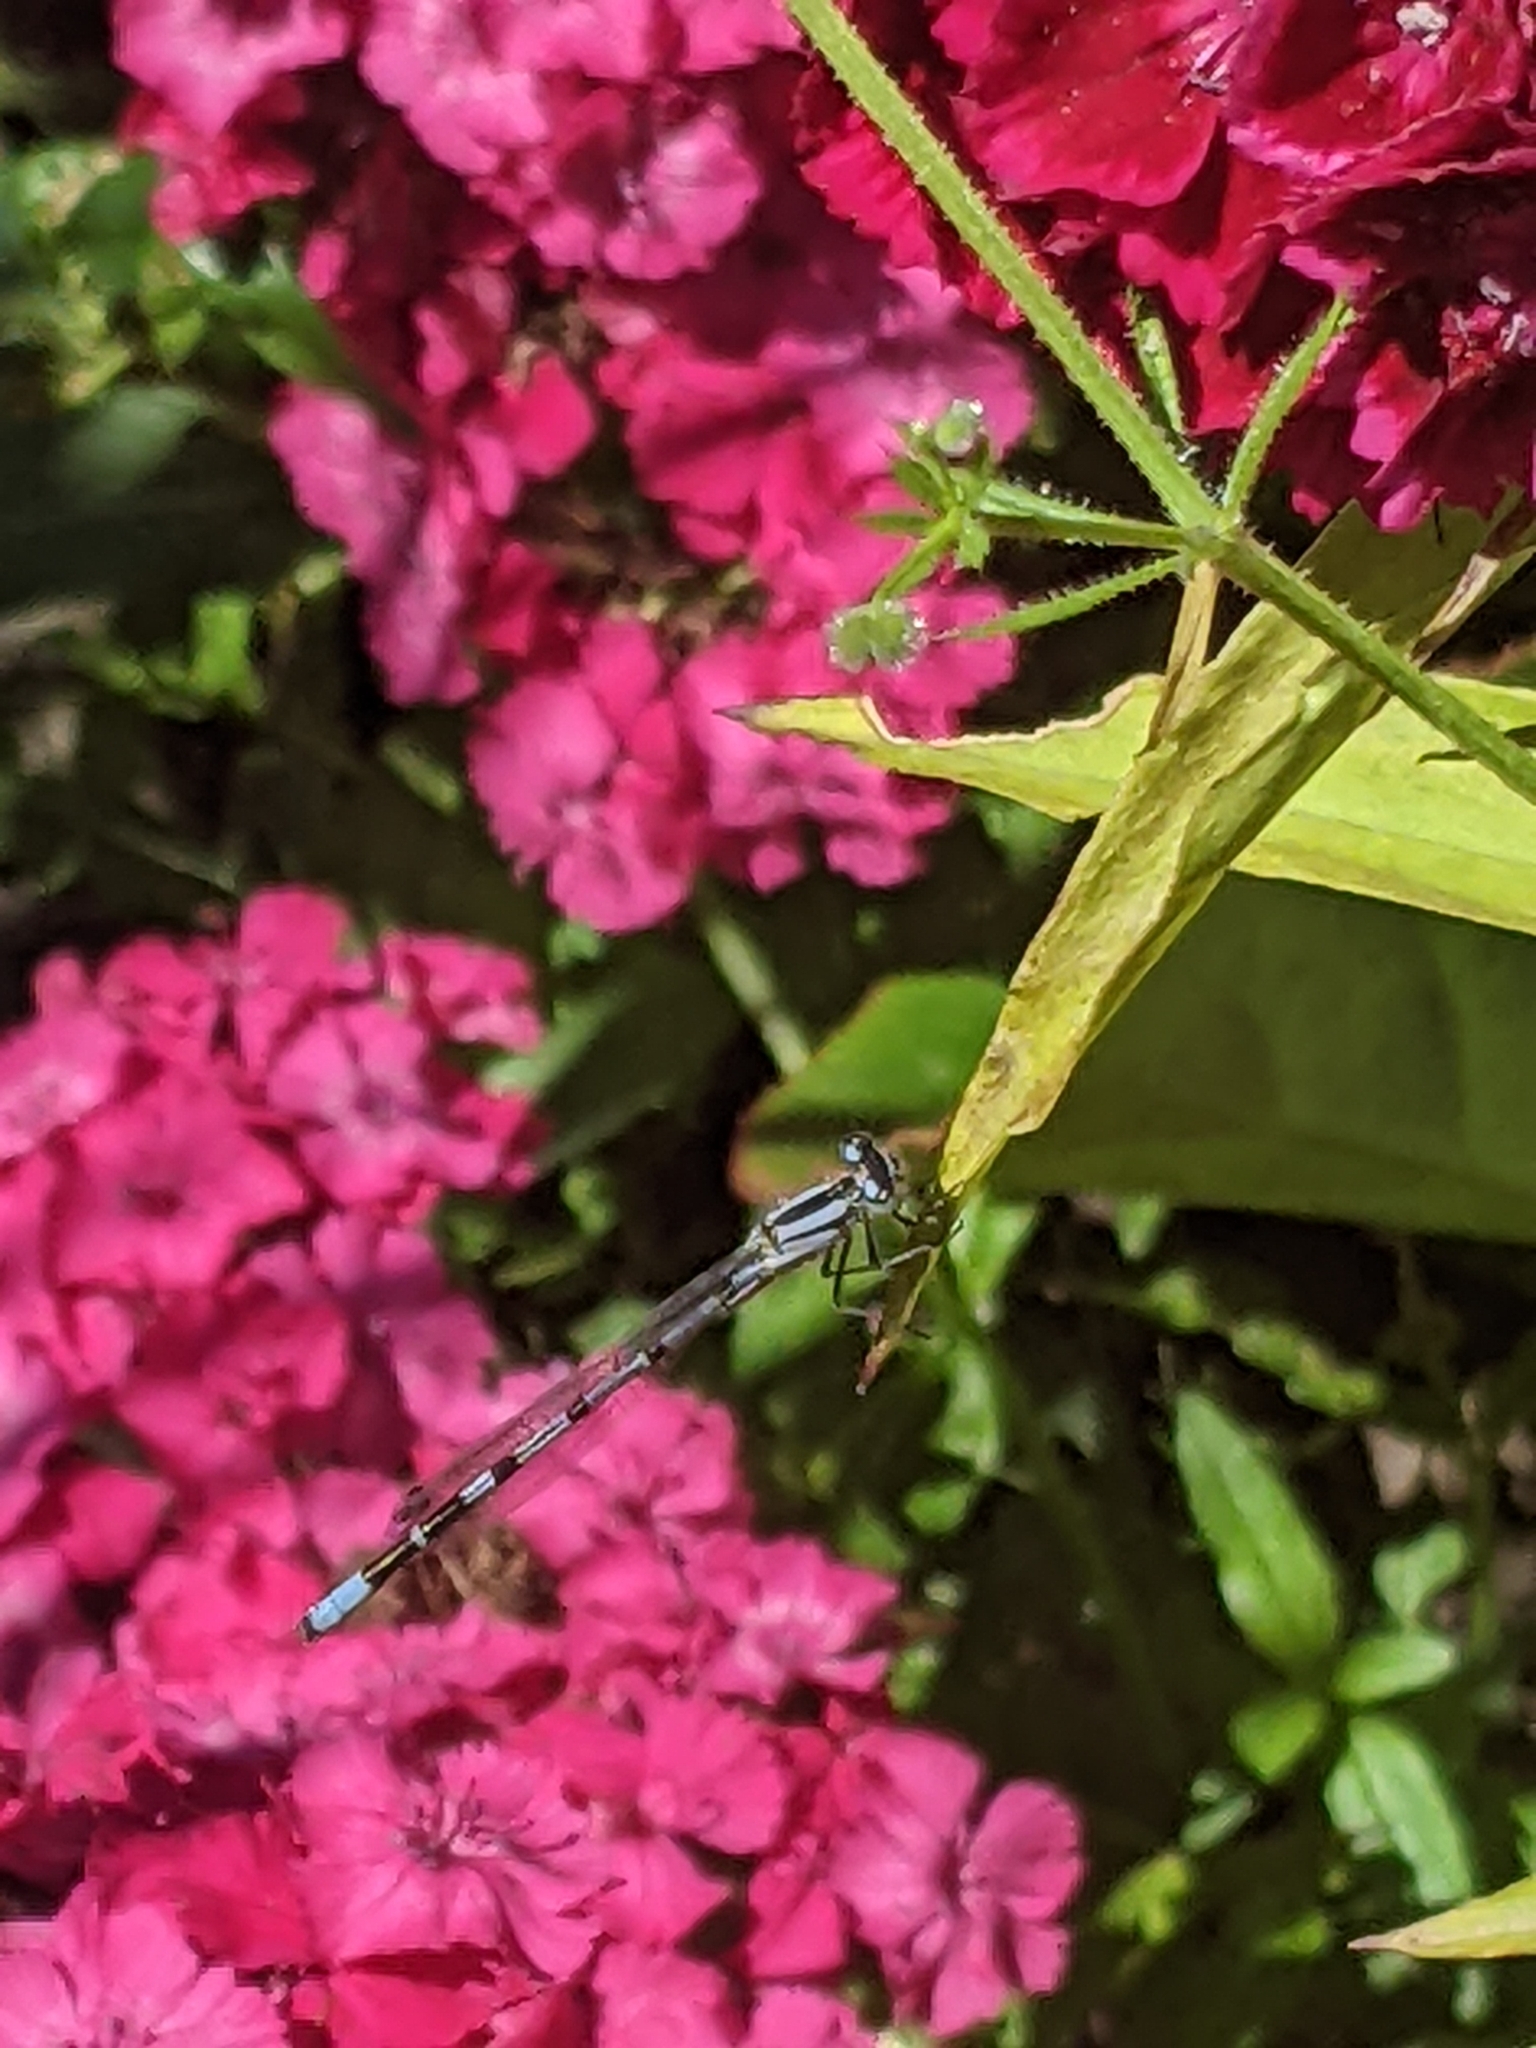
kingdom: Animalia
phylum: Arthropoda
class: Insecta
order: Odonata
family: Coenagrionidae
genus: Enallagma
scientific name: Enallagma cyathigerum
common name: Common blue damselfly
